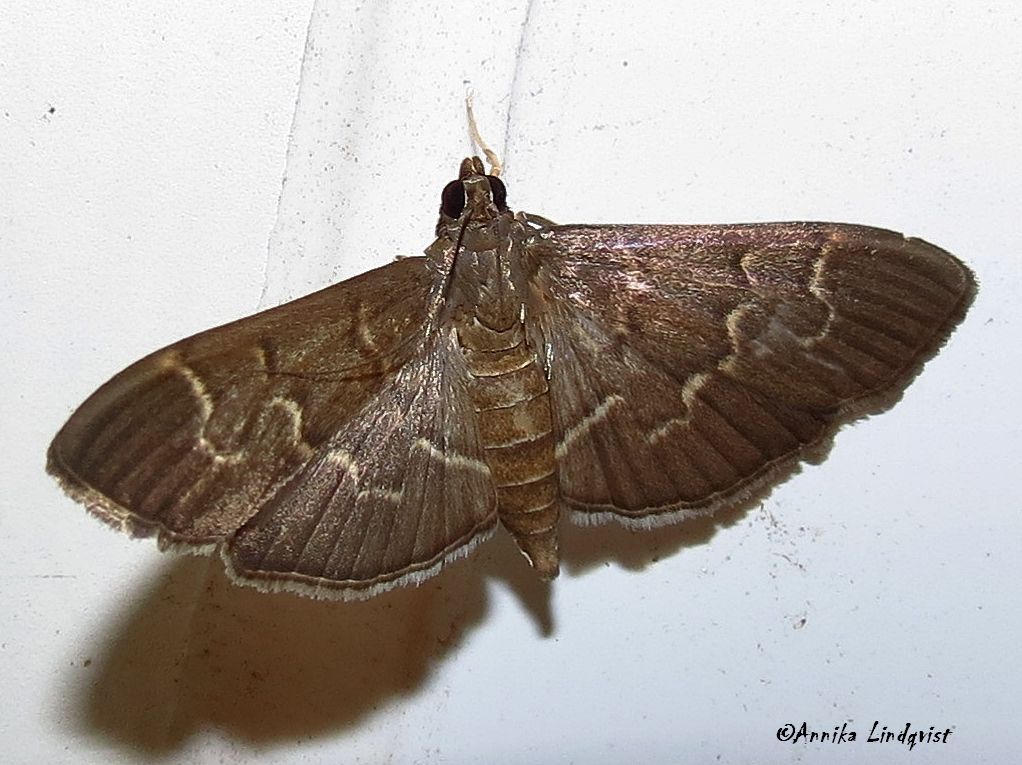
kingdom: Animalia
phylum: Arthropoda
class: Insecta
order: Lepidoptera
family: Crambidae
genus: Pilocrocis
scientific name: Pilocrocis ramentalis
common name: Scraped pilocrocis
